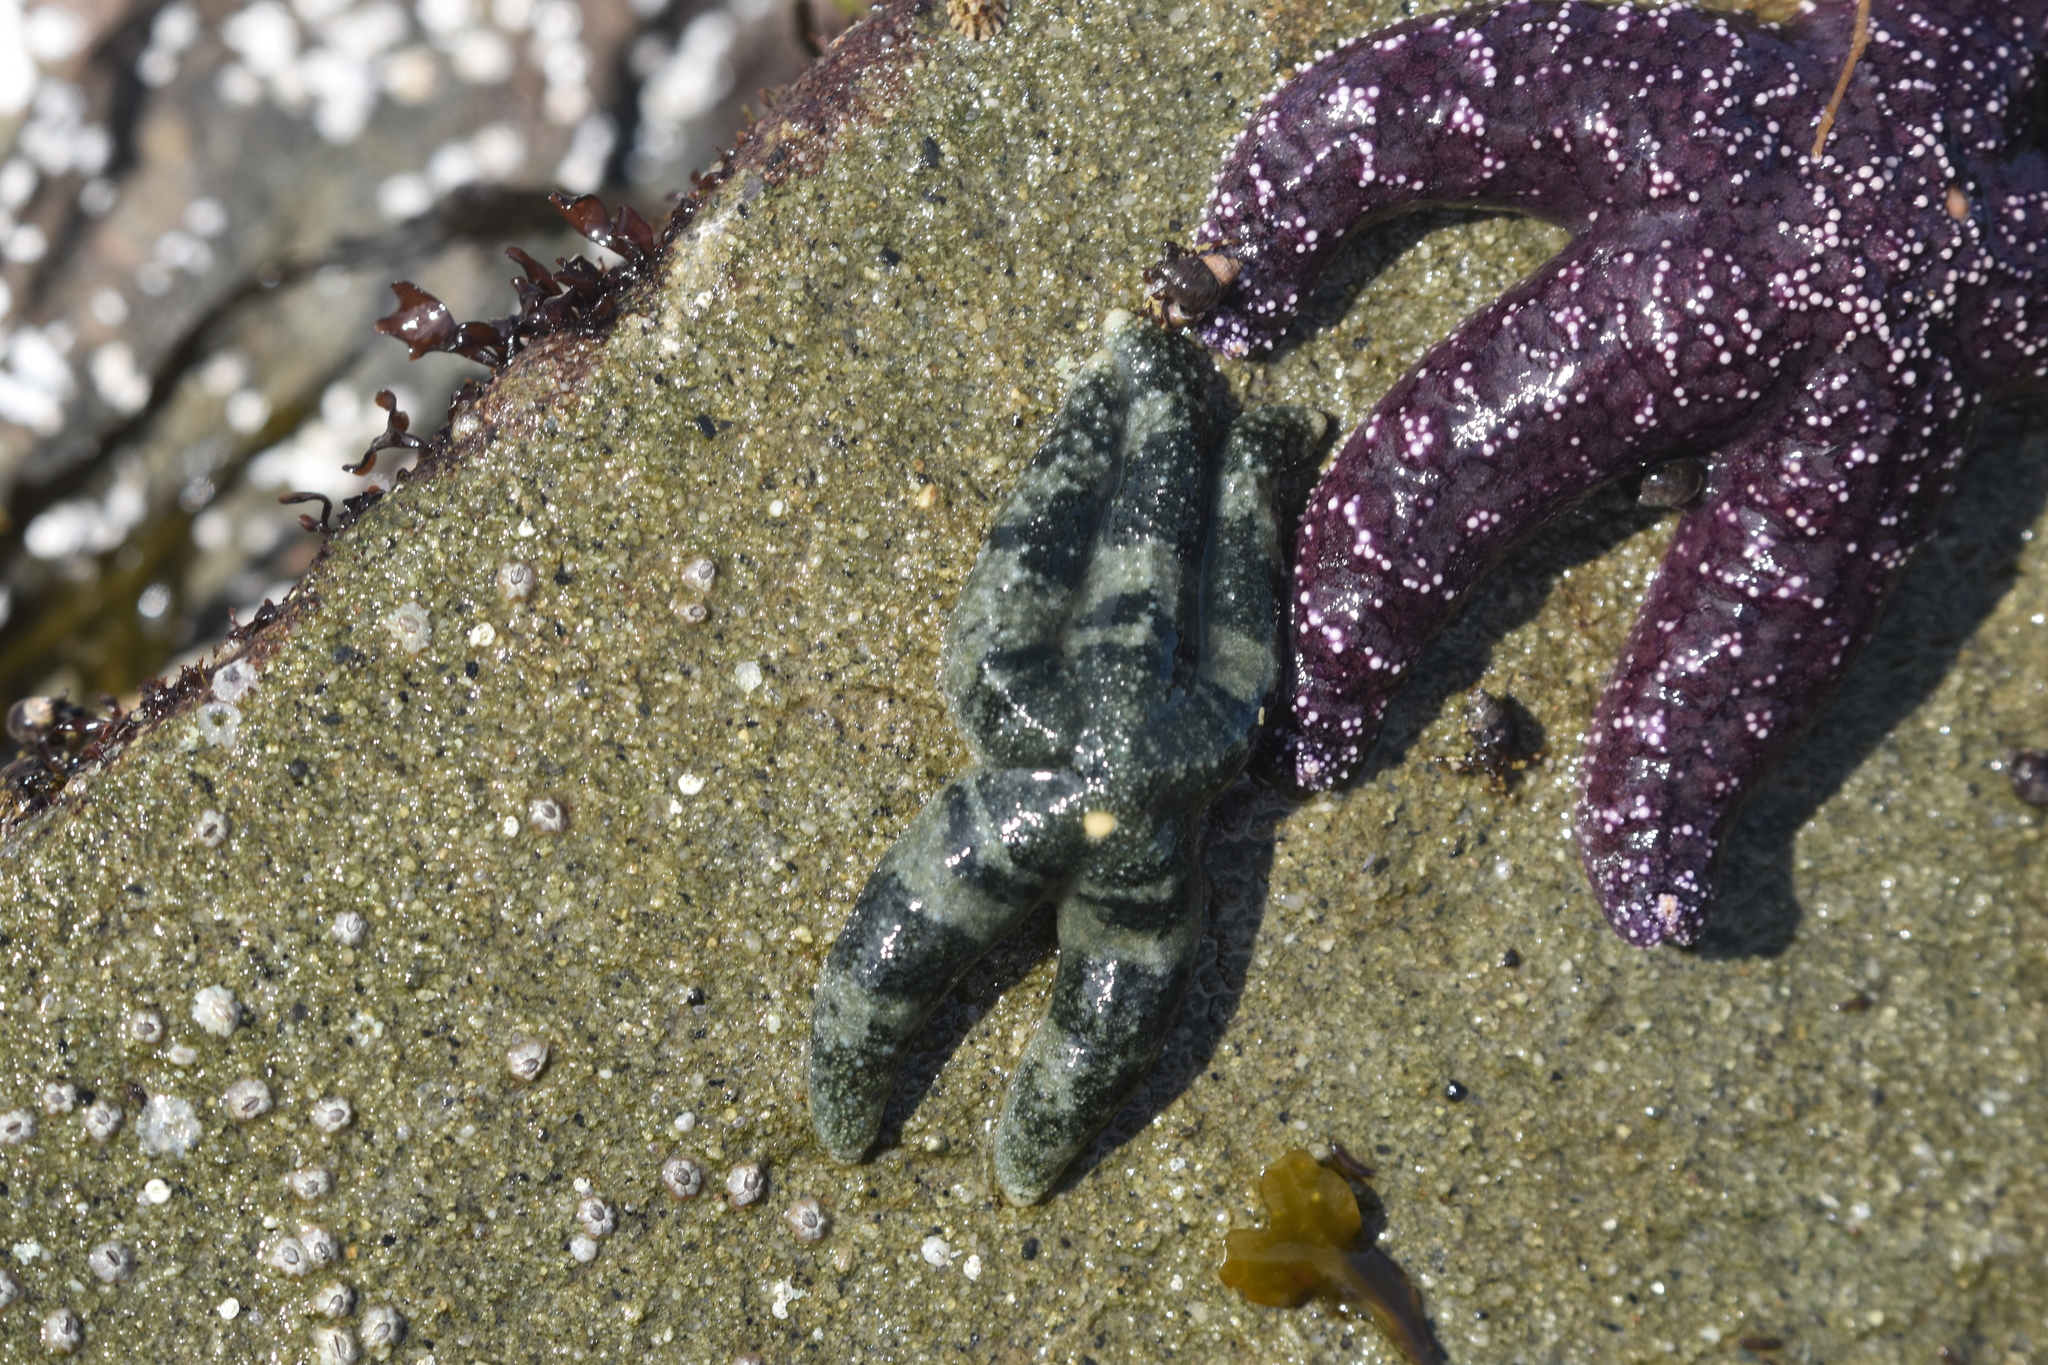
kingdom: Animalia
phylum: Echinodermata
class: Asteroidea
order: Forcipulatida
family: Asteriidae
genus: Evasterias
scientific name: Evasterias troschelii
